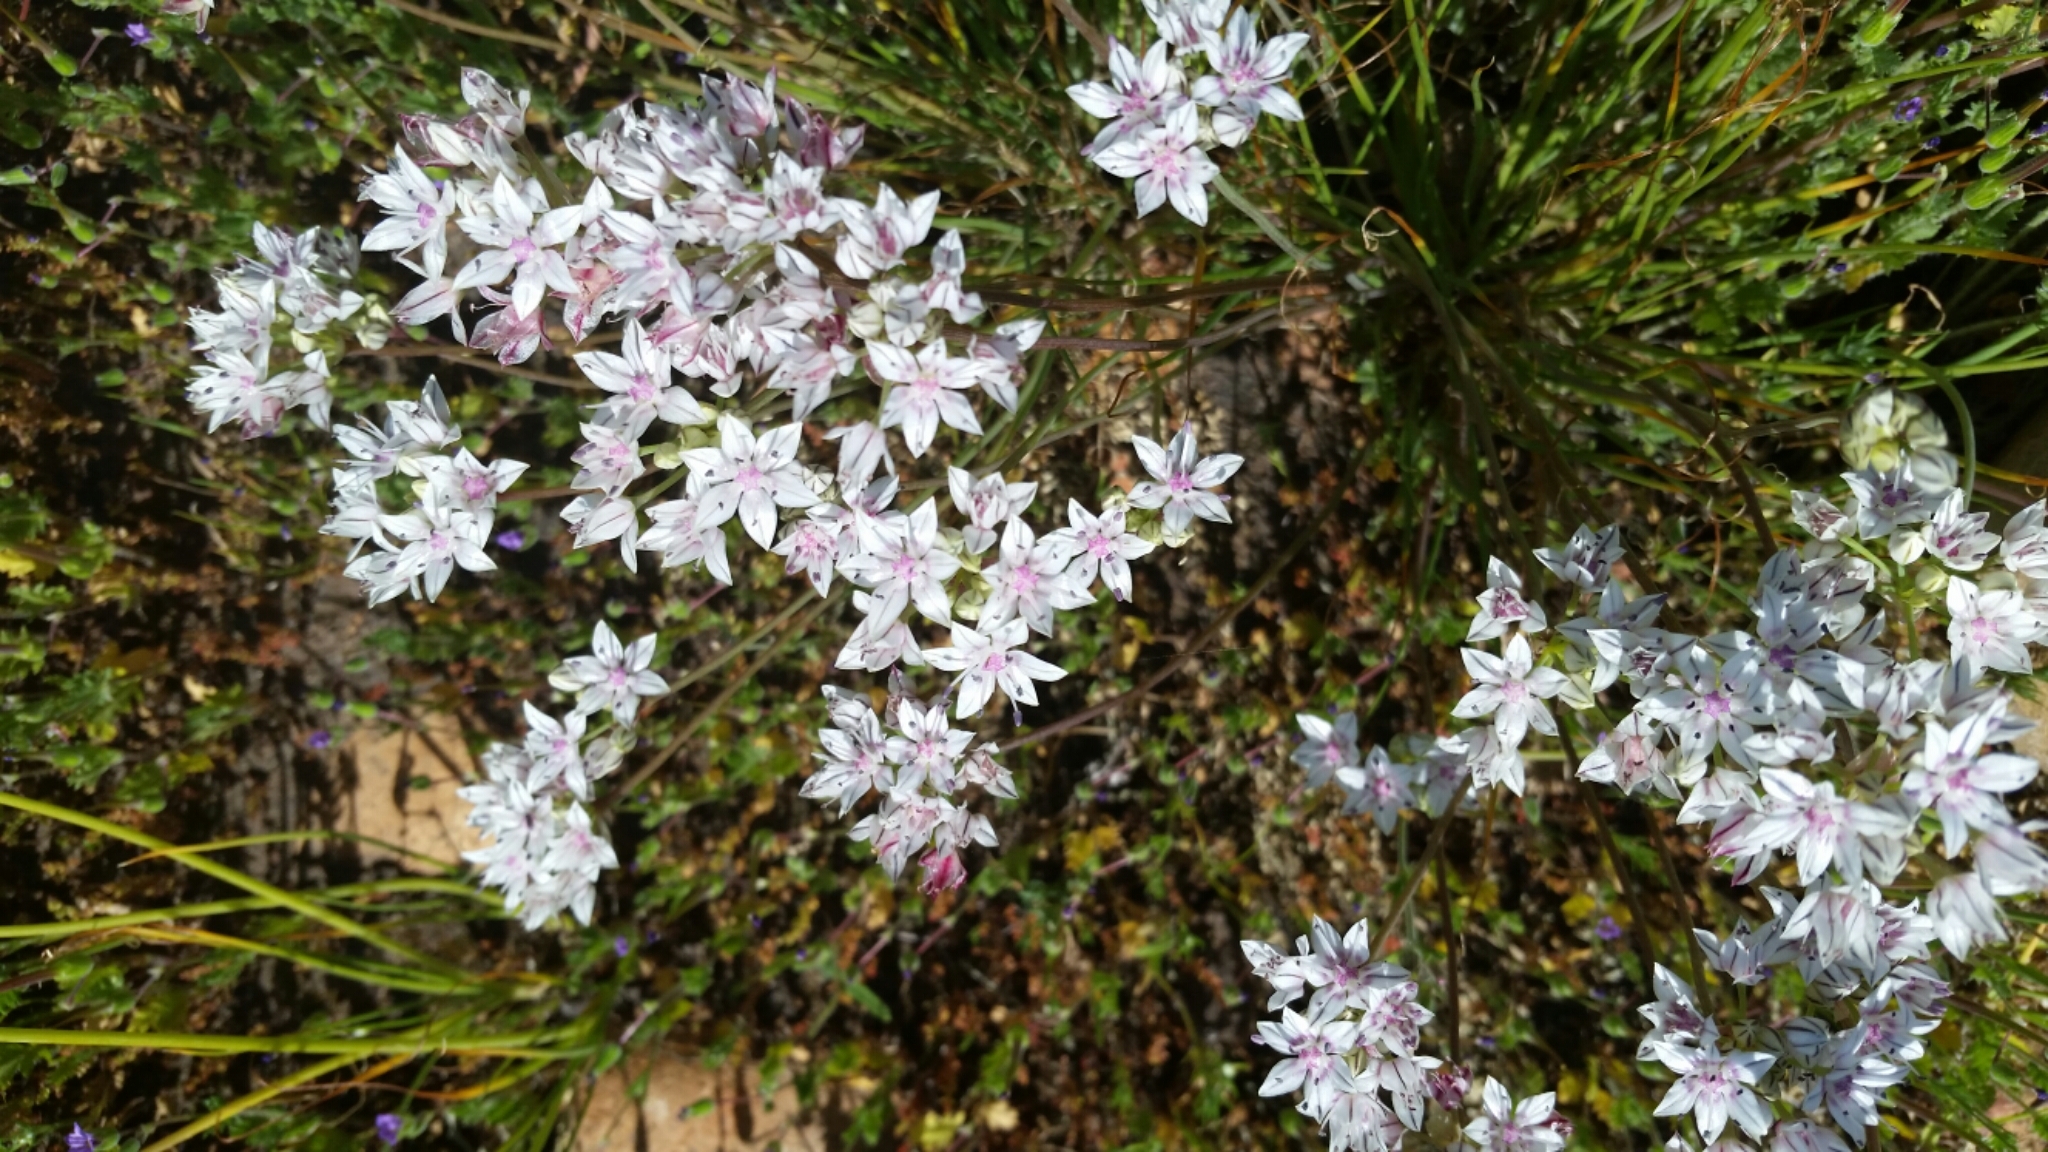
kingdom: Plantae
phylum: Tracheophyta
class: Liliopsida
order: Asparagales
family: Amaryllidaceae
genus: Allium
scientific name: Allium praecox
